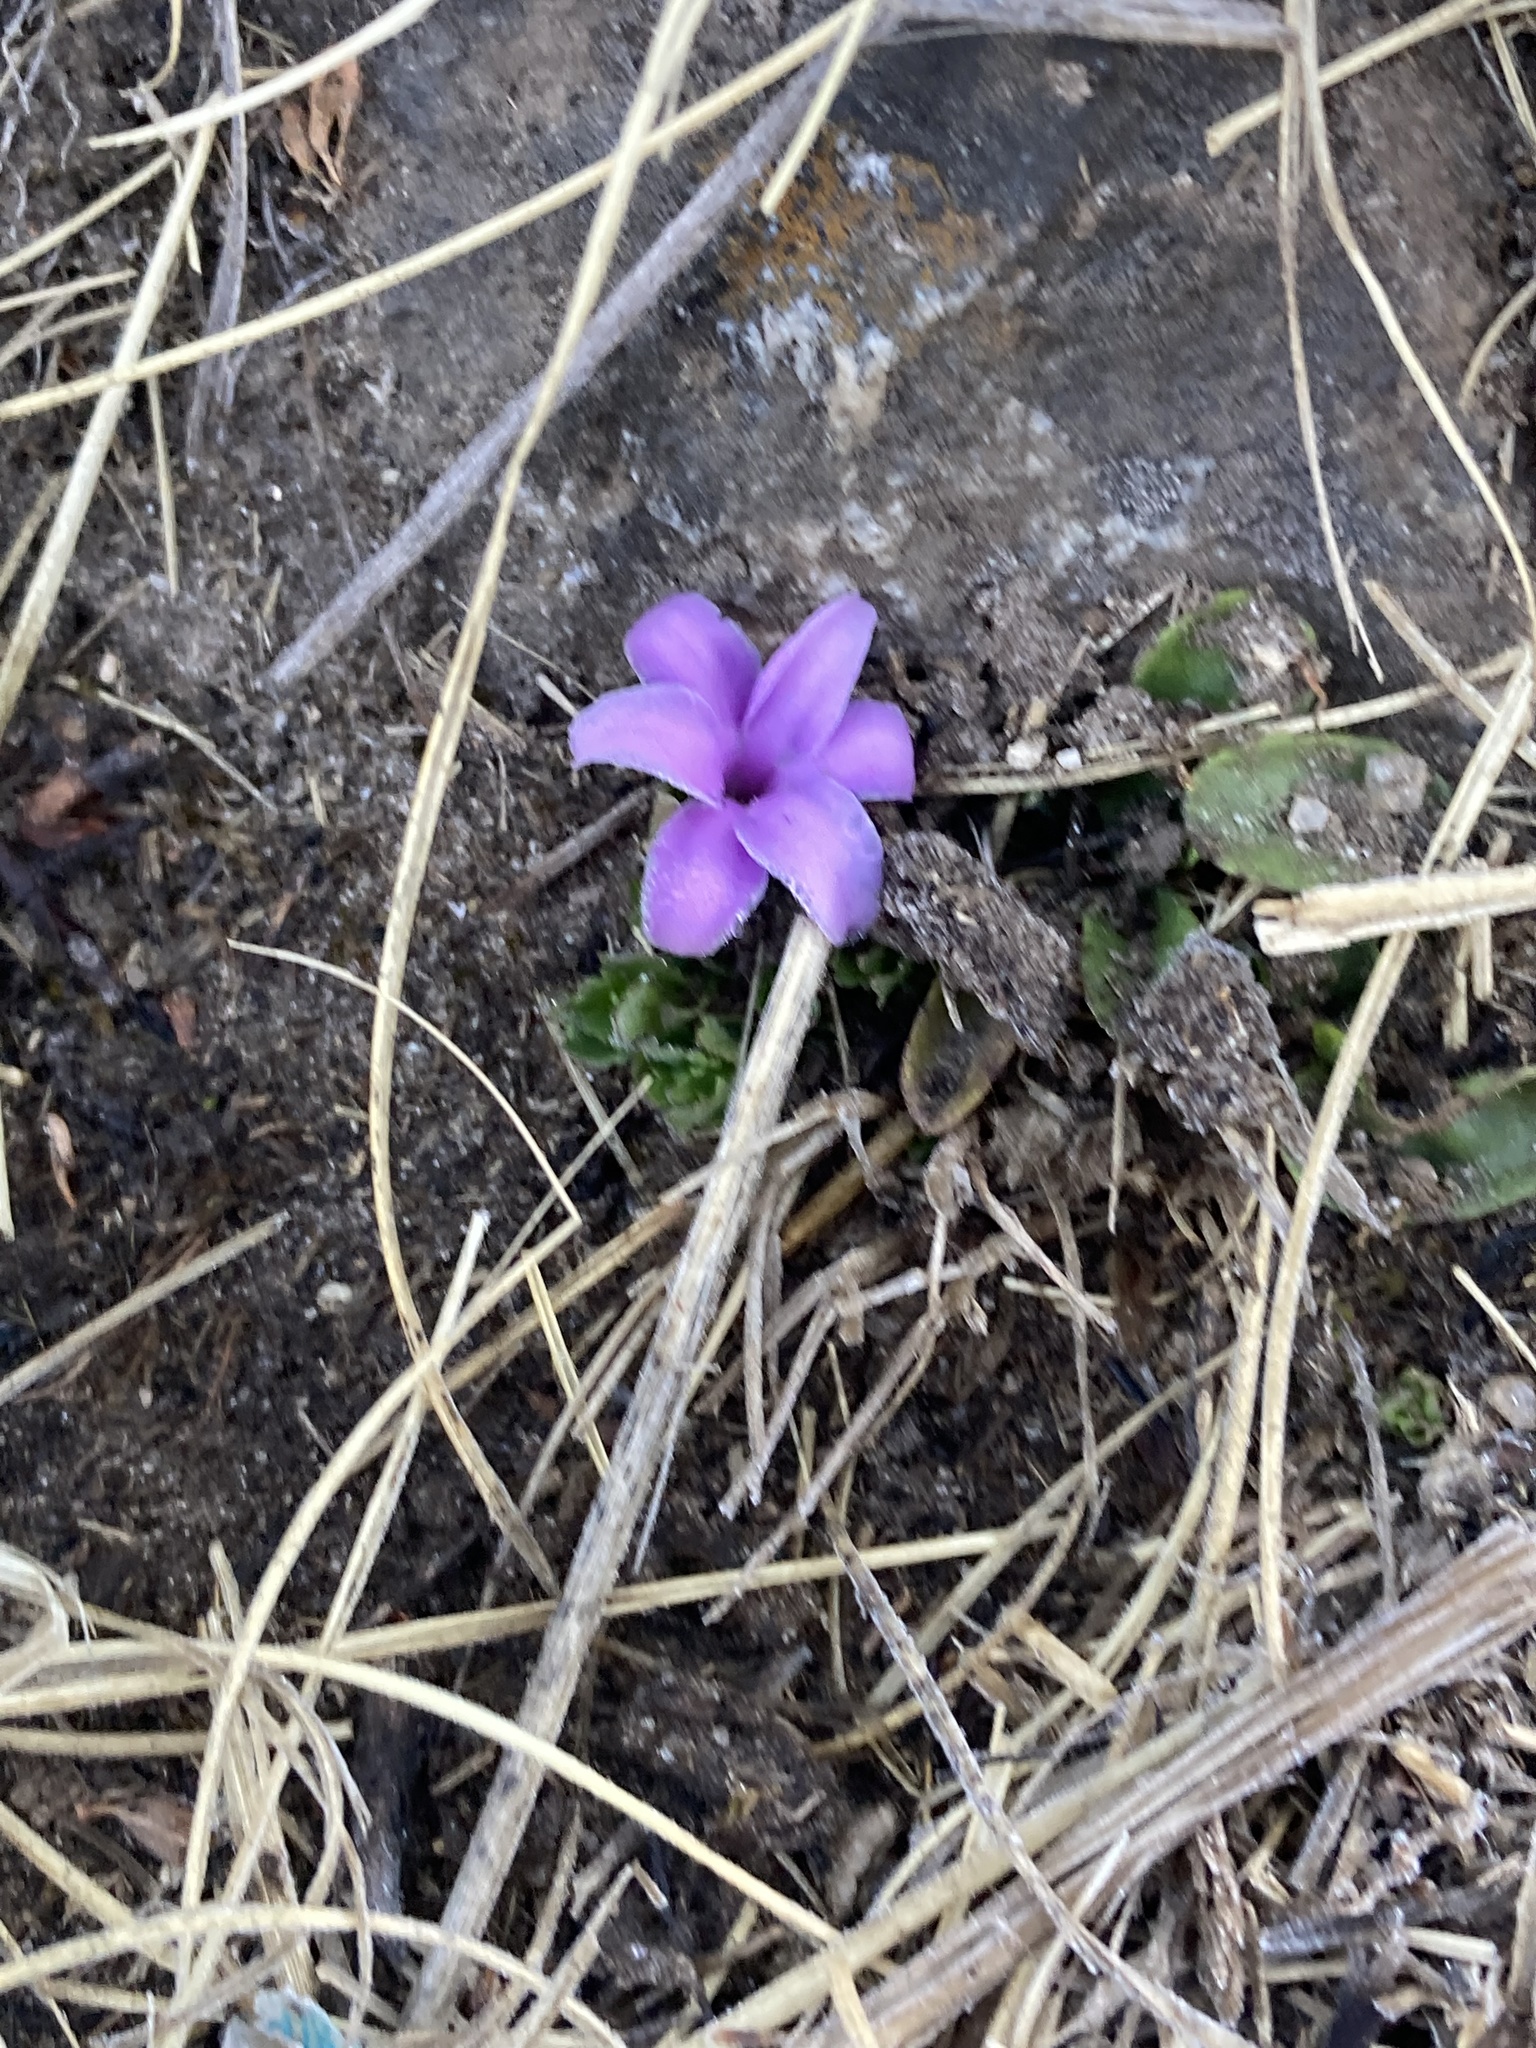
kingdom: Plantae
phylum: Tracheophyta
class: Liliopsida
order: Asparagales
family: Asparagaceae
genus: Polygonatum
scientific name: Polygonatum hookeri
